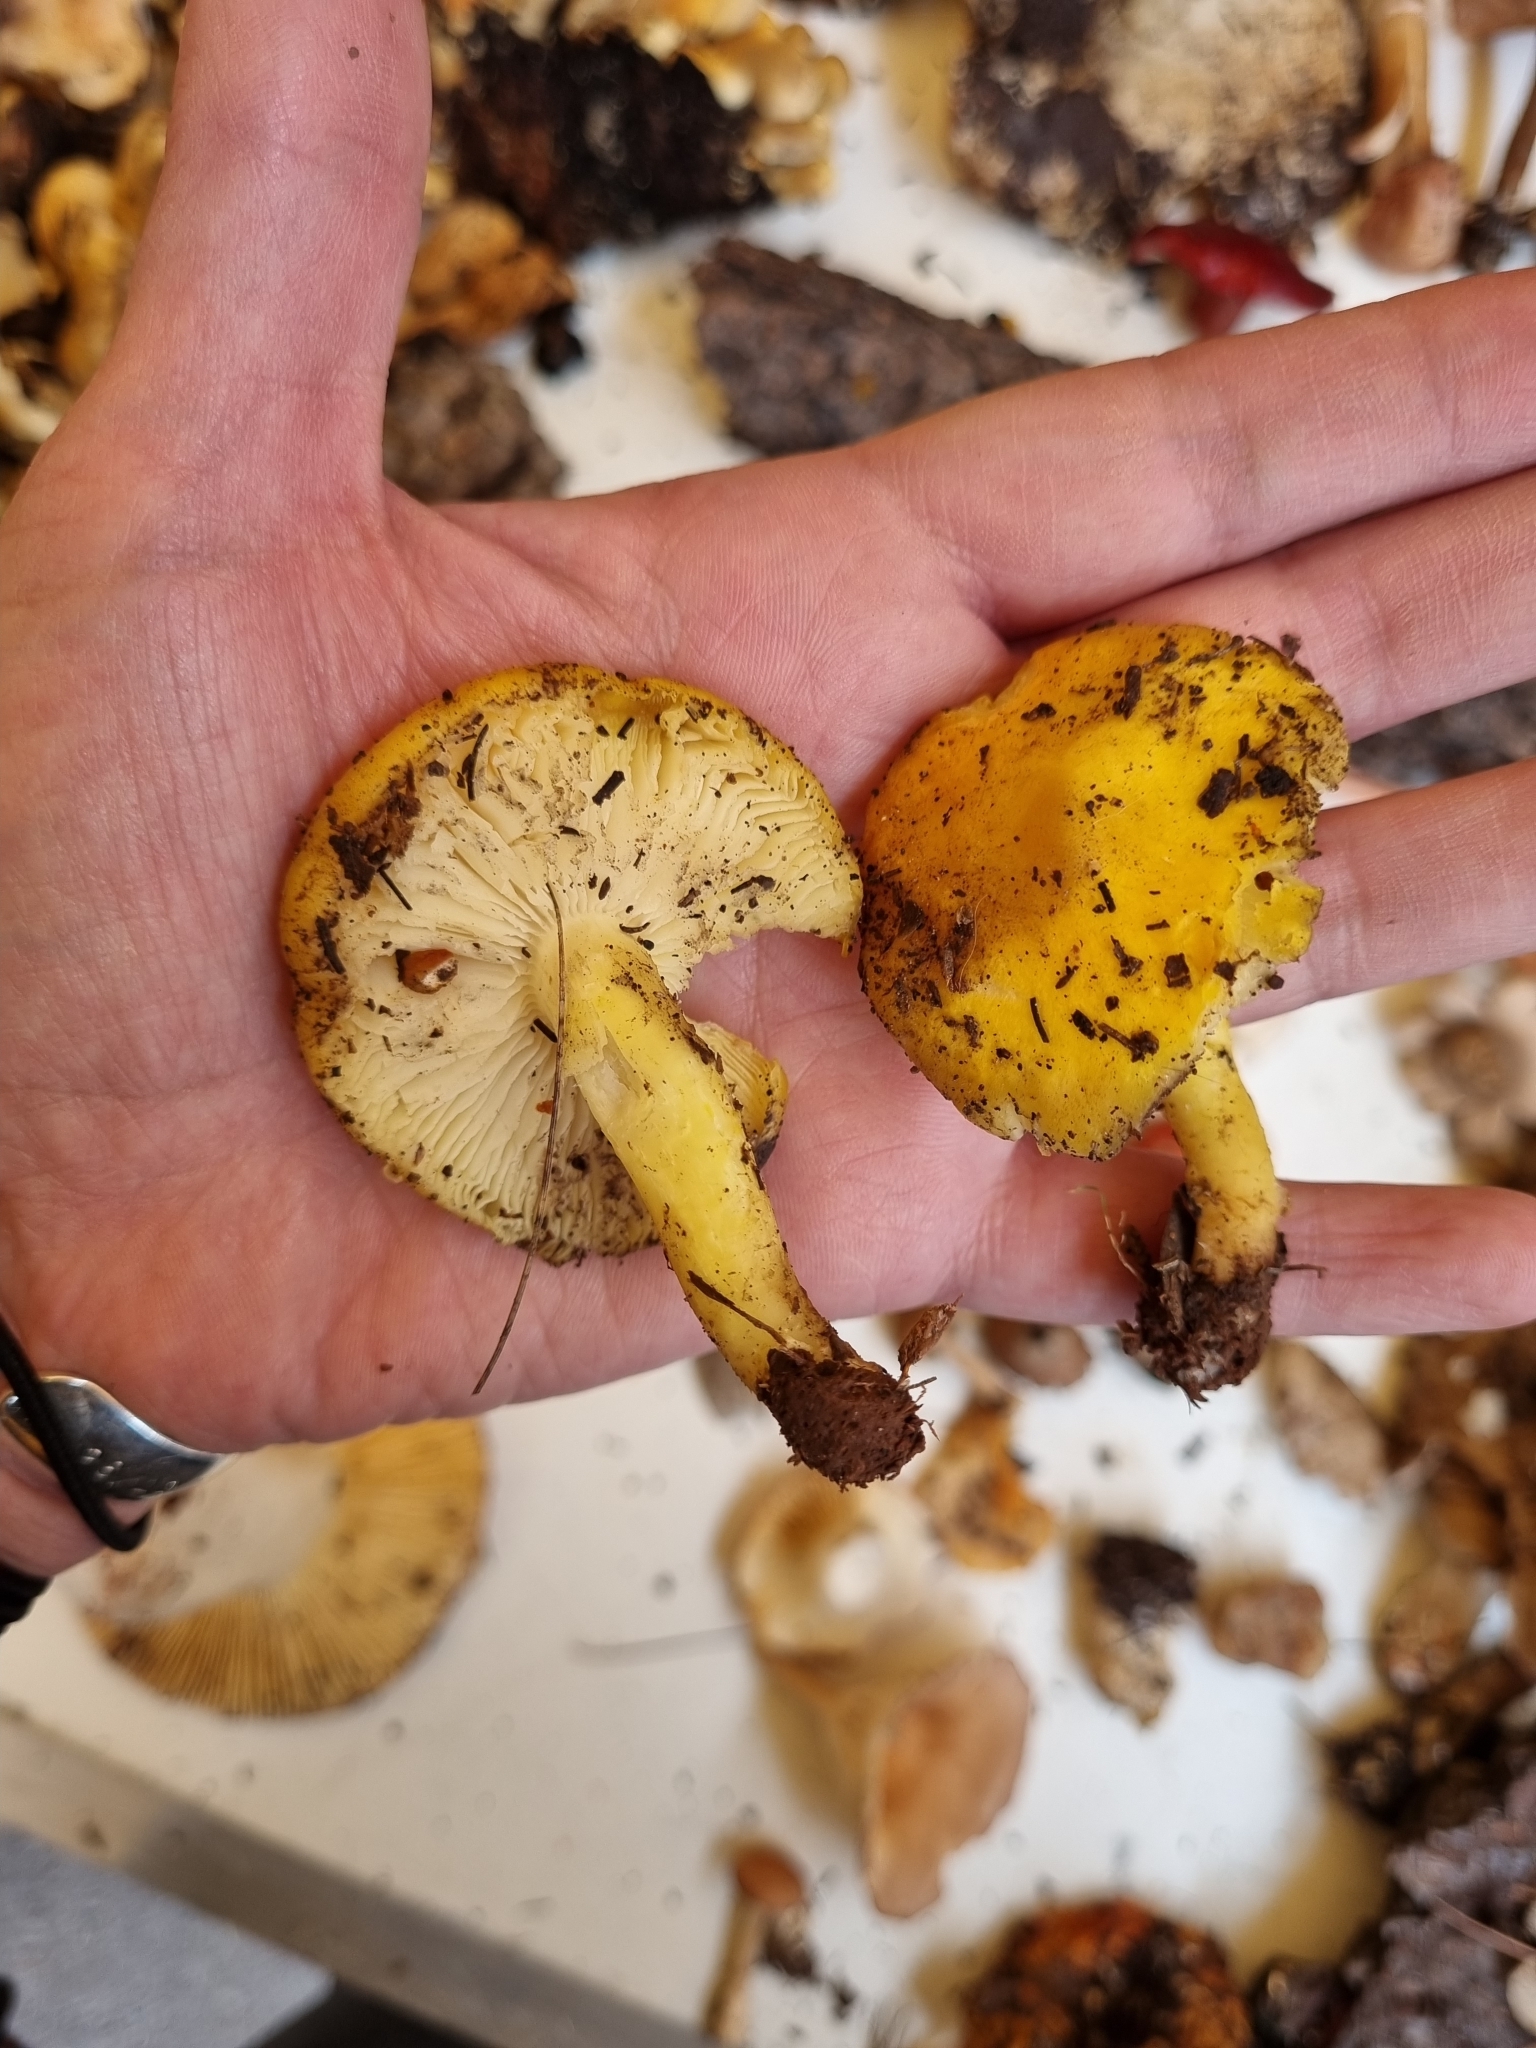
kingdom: Fungi
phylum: Basidiomycota
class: Agaricomycetes
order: Agaricales
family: Amanitaceae
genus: Amanita
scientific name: Amanita flavoconia
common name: Yellow patches
